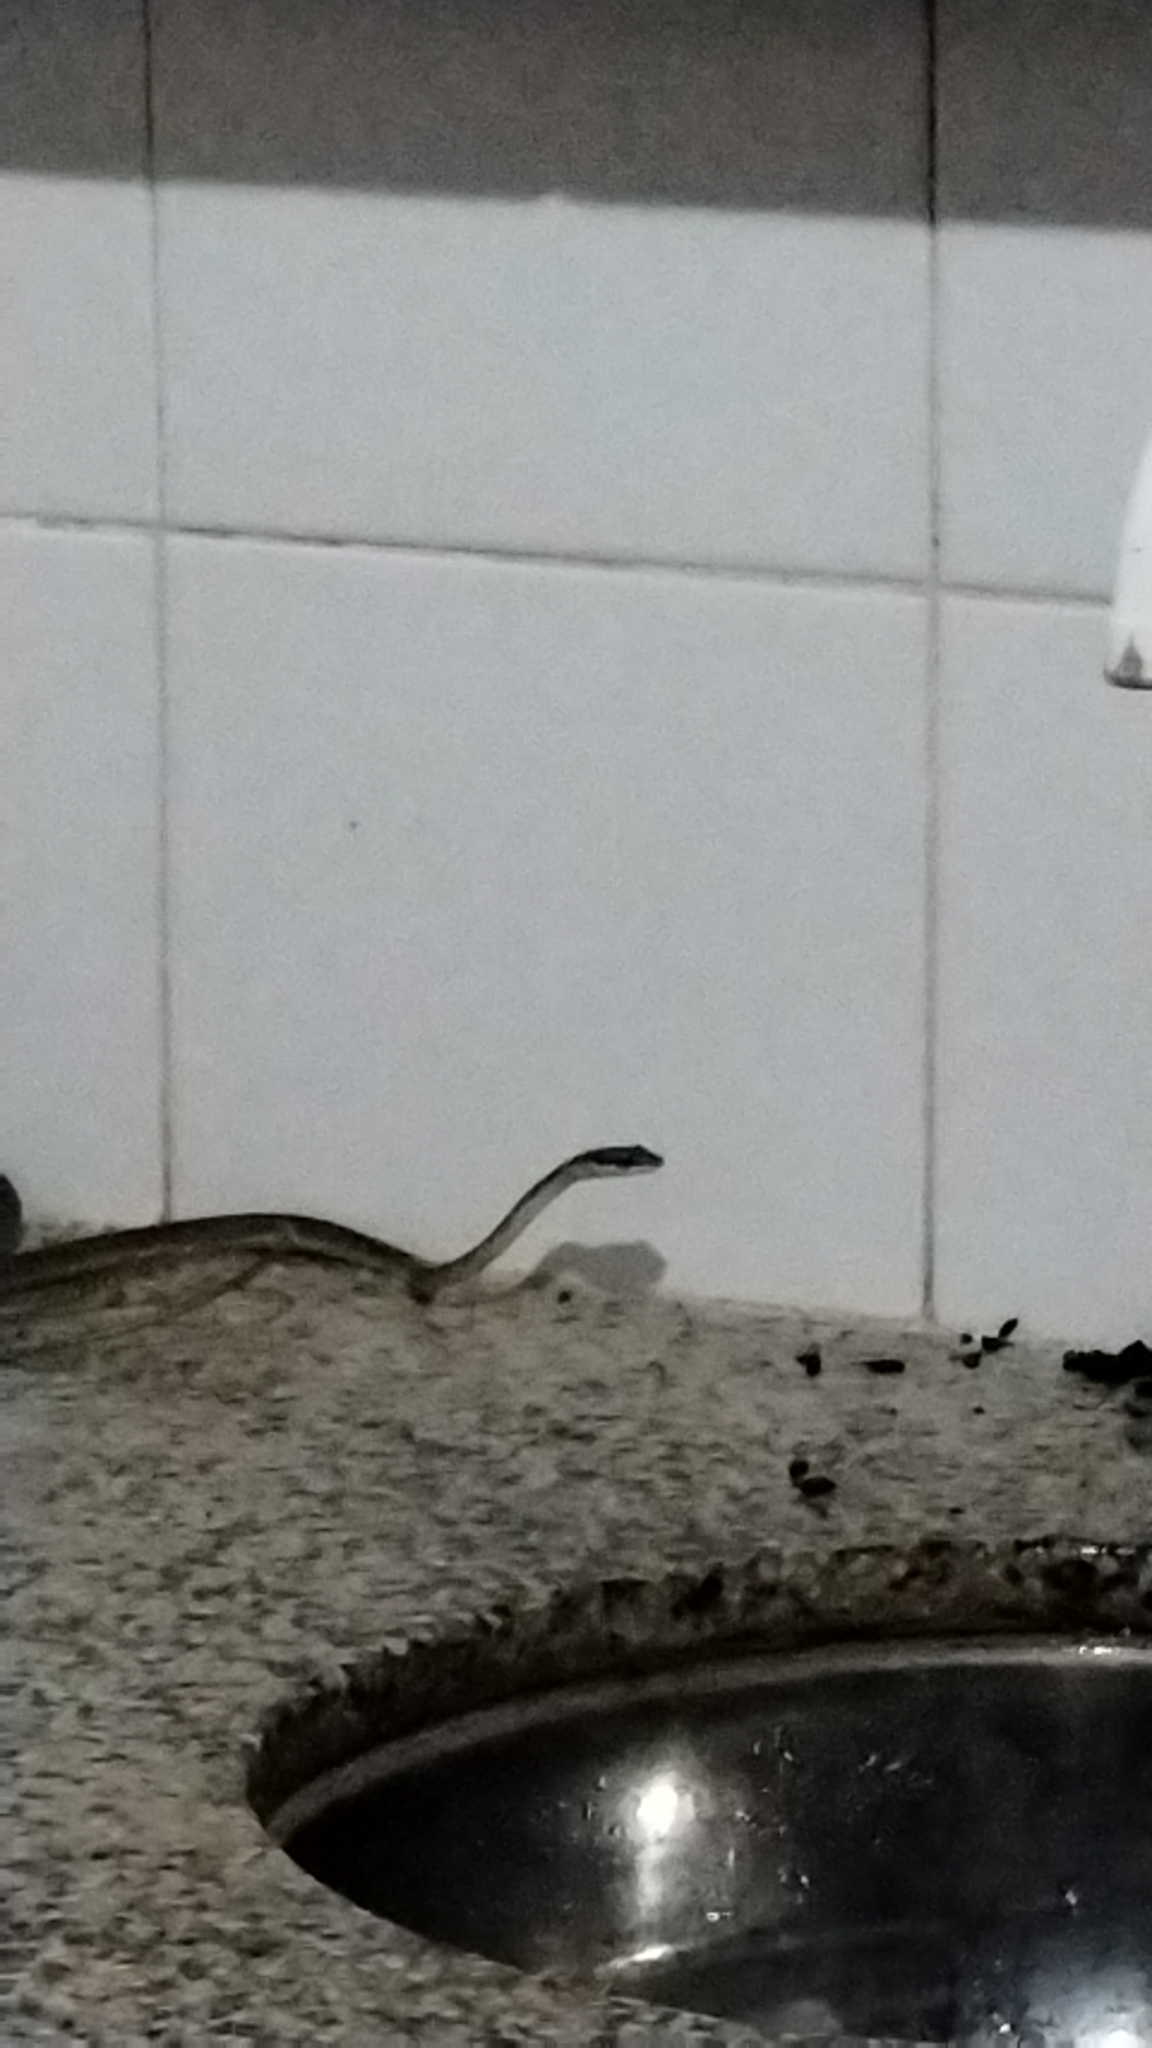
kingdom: Animalia
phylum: Chordata
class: Squamata
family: Colubridae
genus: Leptophis
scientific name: Leptophis ahaetulla
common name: Parrot snake
